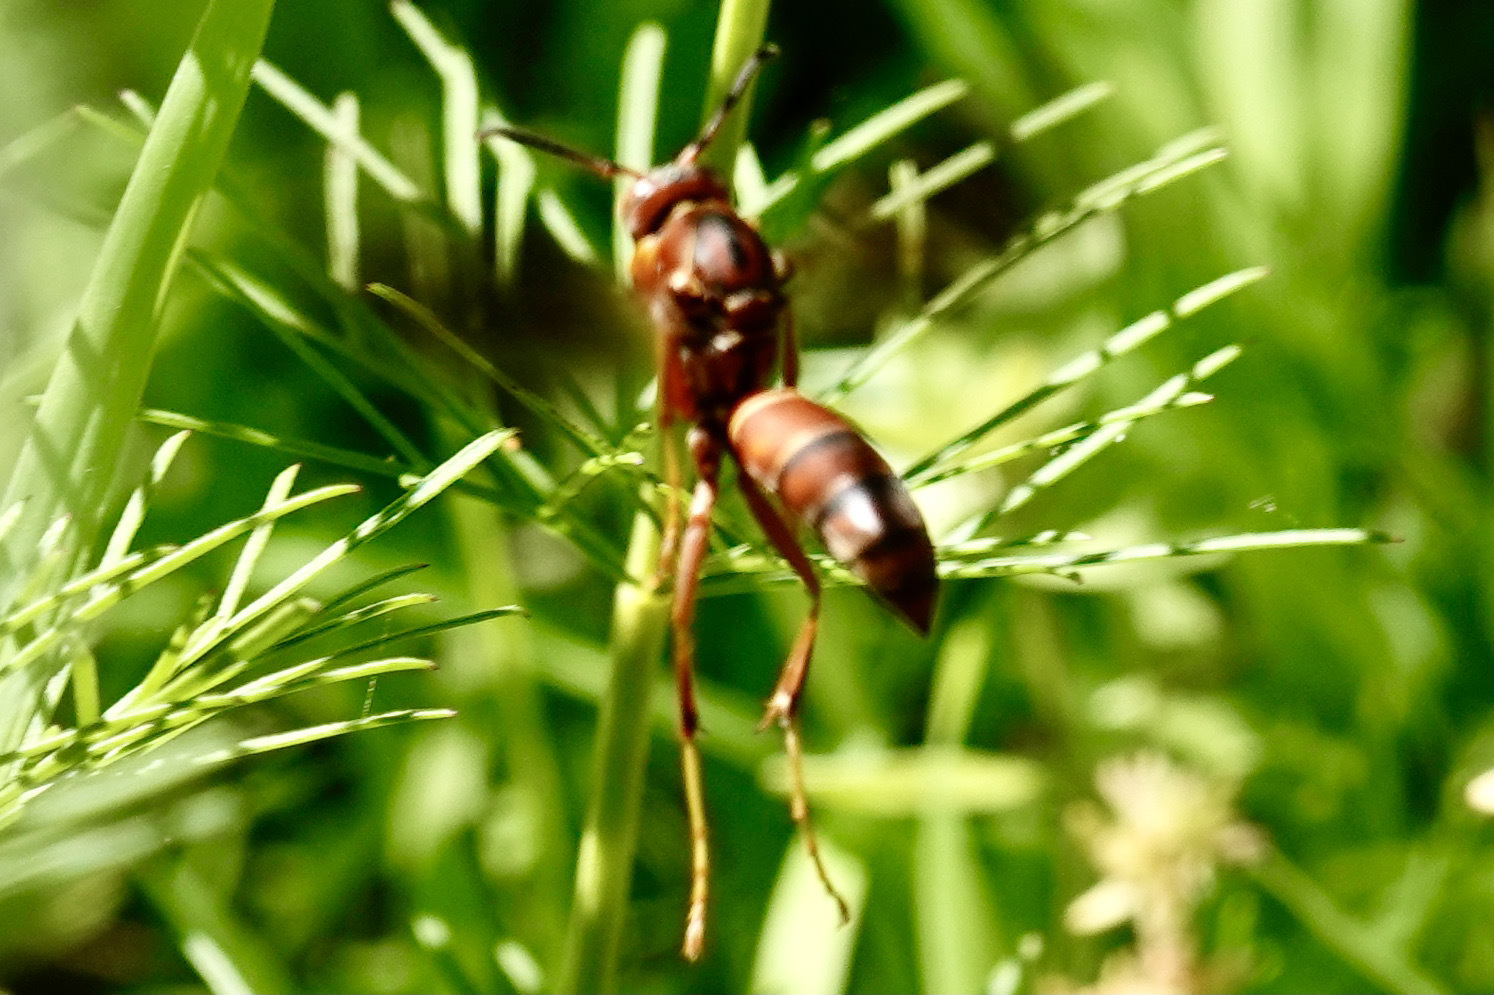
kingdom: Animalia
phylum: Arthropoda
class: Insecta
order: Hymenoptera
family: Vespidae
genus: Fuscopolistes
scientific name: Fuscopolistes
